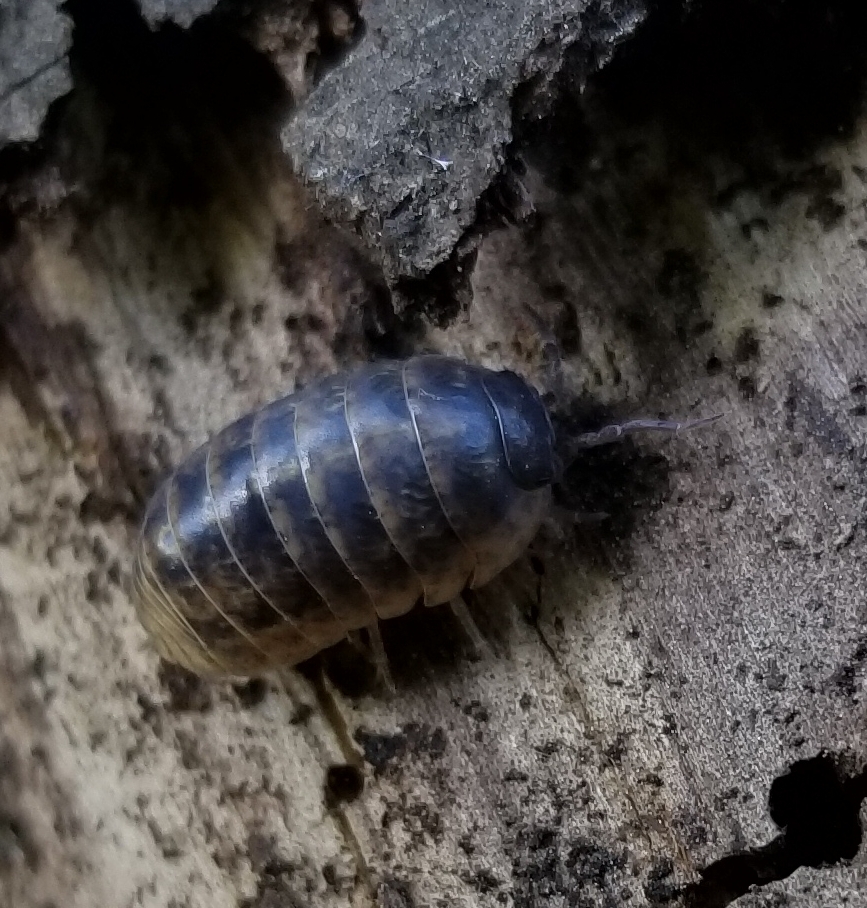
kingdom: Animalia
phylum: Arthropoda
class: Malacostraca
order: Isopoda
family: Armadillidiidae
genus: Armadillidium
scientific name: Armadillidium vulgare
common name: Common pill woodlouse
